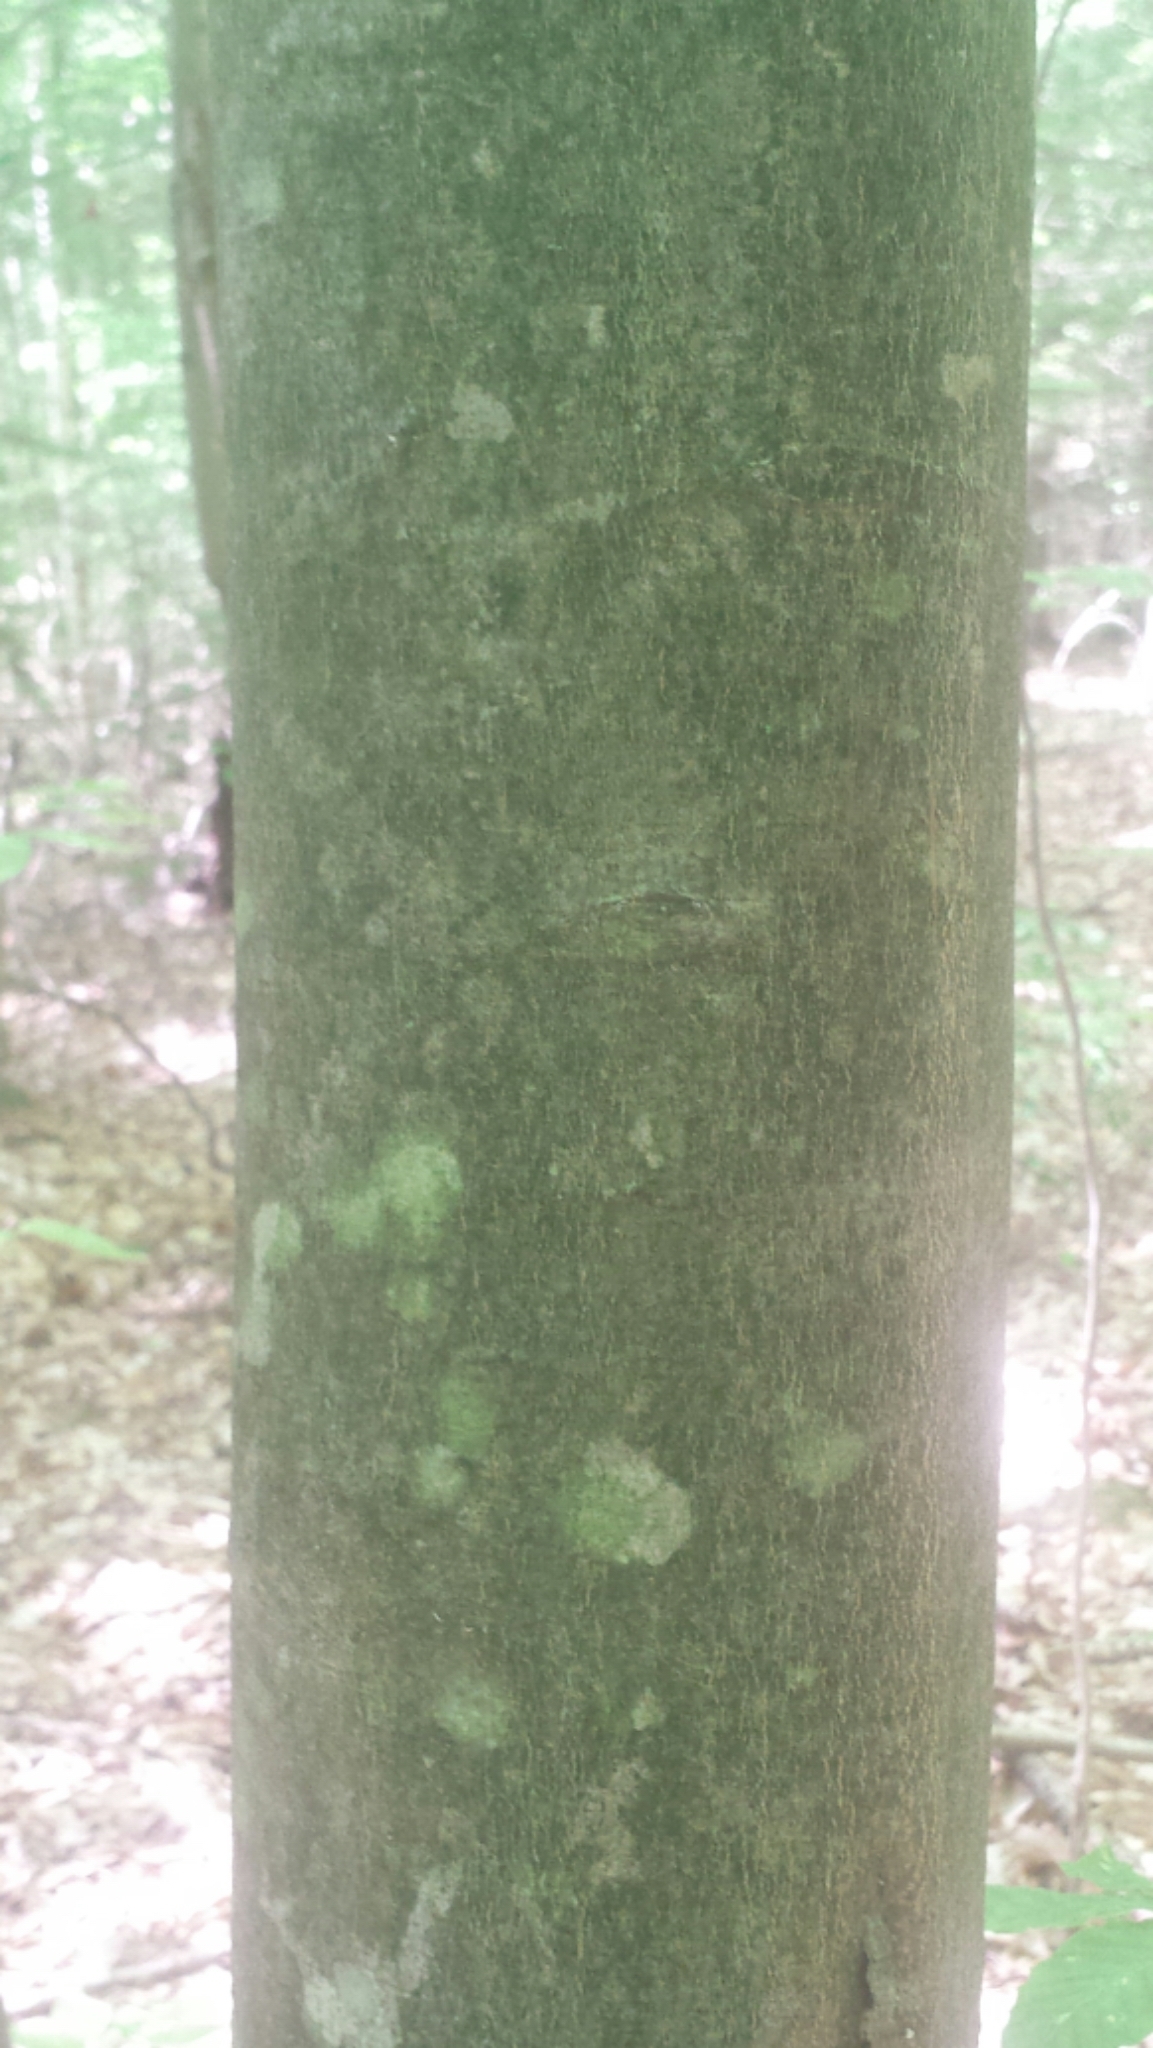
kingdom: Plantae
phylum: Tracheophyta
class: Magnoliopsida
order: Fagales
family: Fagaceae
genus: Fagus
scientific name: Fagus grandifolia
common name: American beech
